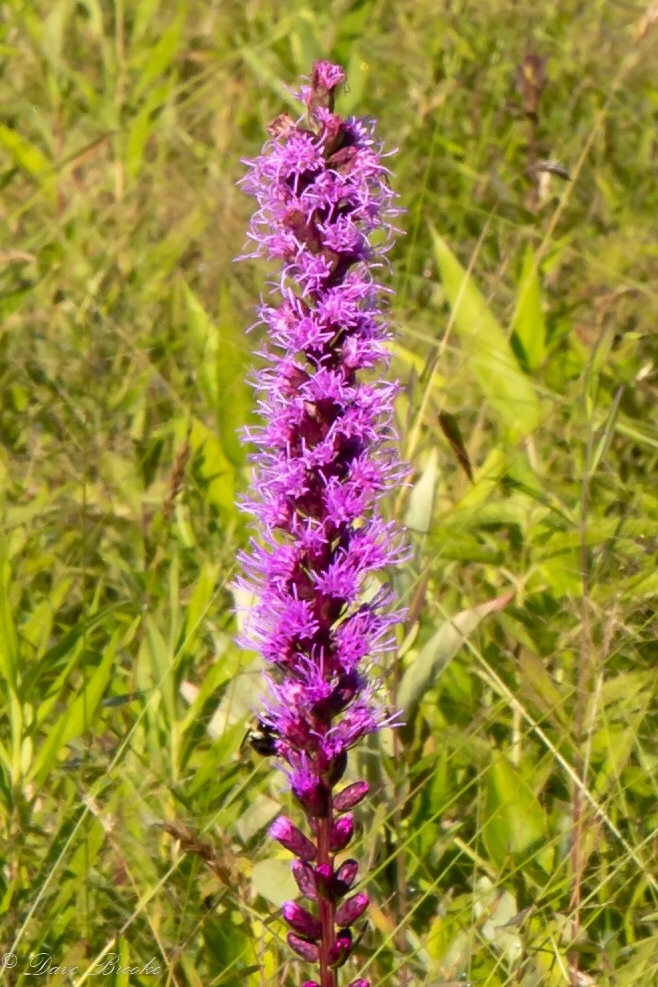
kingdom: Plantae
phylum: Tracheophyta
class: Magnoliopsida
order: Asterales
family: Asteraceae
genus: Liatris
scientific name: Liatris spicata
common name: Florist gayfeather
